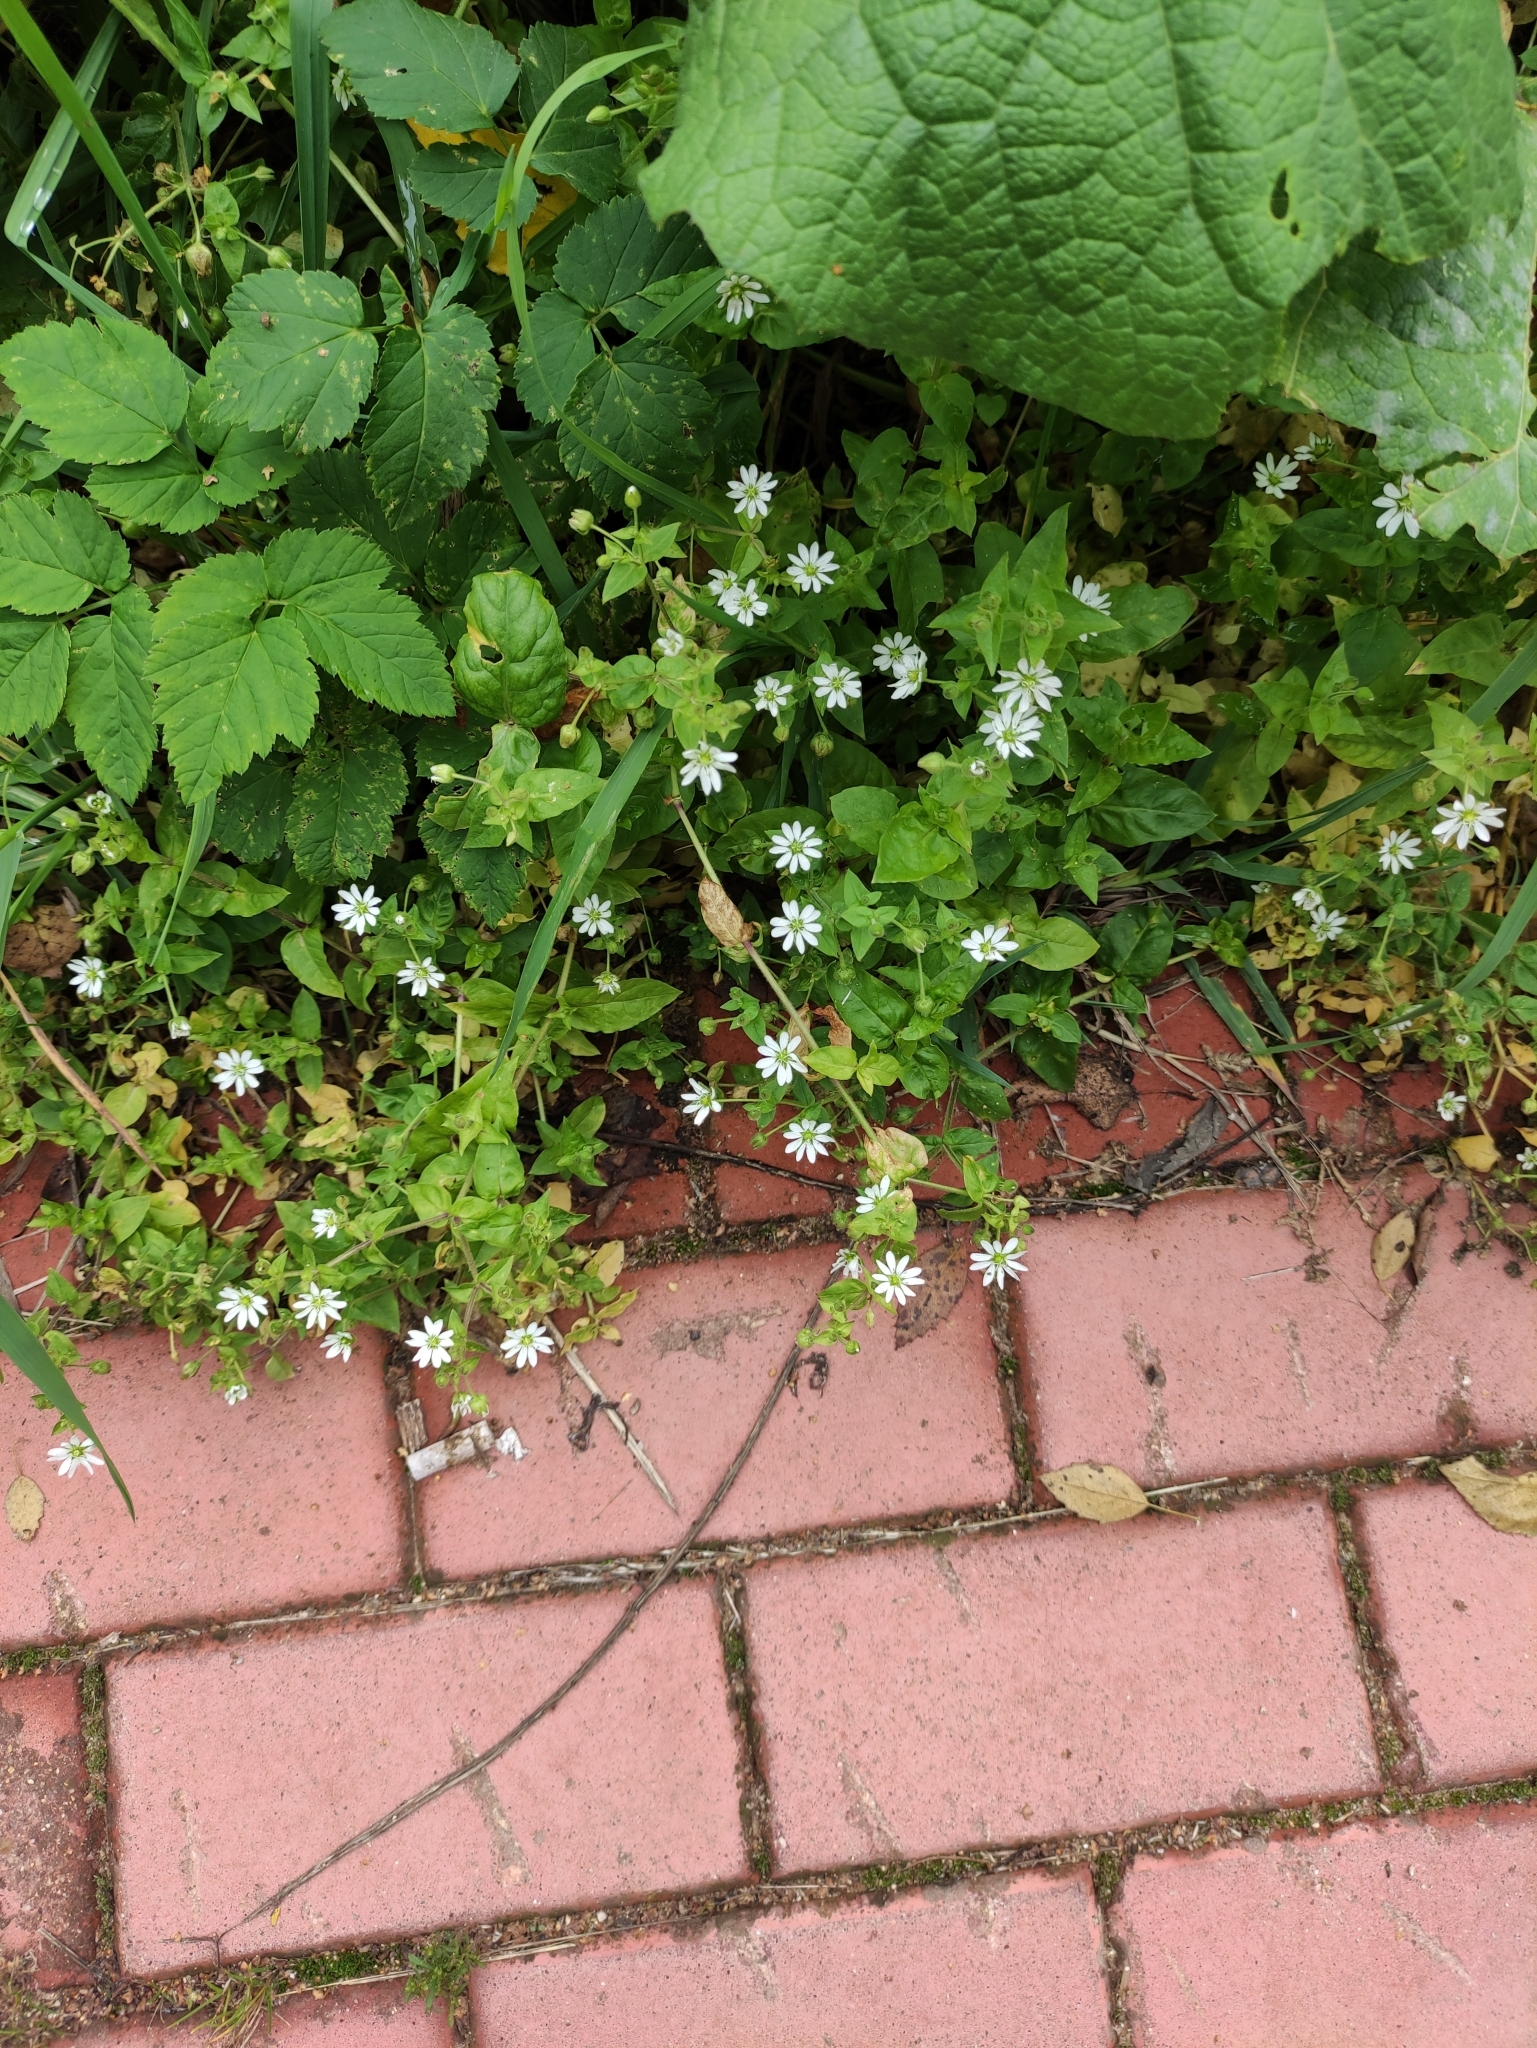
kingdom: Plantae
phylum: Tracheophyta
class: Magnoliopsida
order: Caryophyllales
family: Caryophyllaceae
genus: Stellaria
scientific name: Stellaria aquatica
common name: Water chickweed
